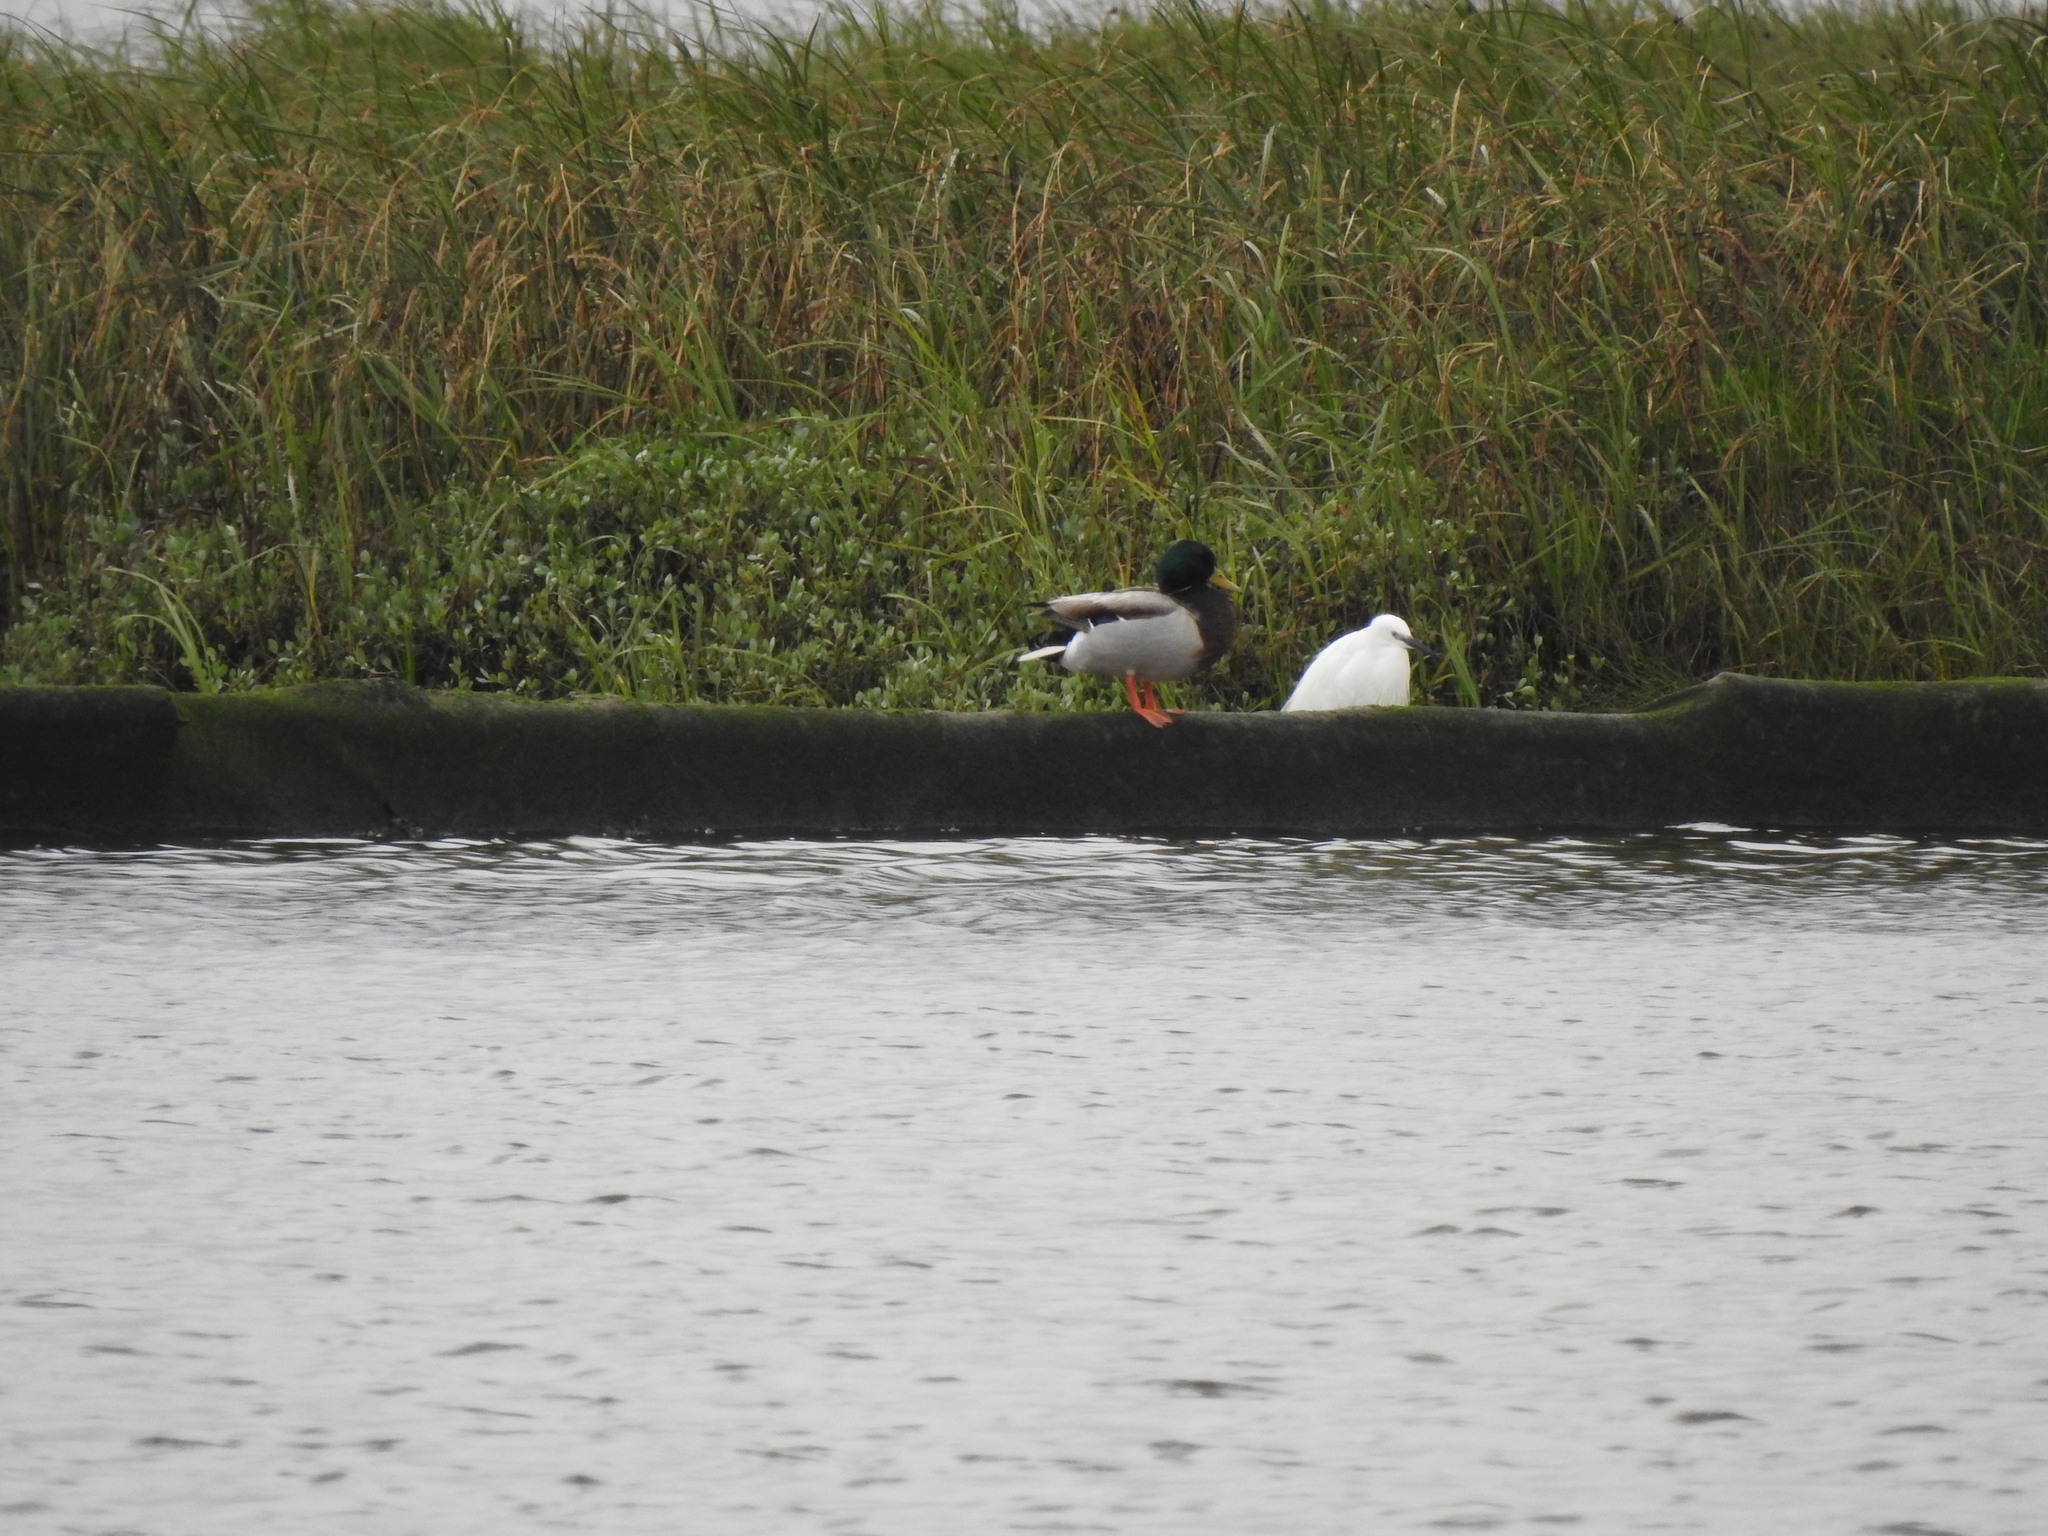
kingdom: Animalia
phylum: Chordata
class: Aves
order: Pelecaniformes
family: Ardeidae
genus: Egretta
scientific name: Egretta garzetta
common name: Little egret
